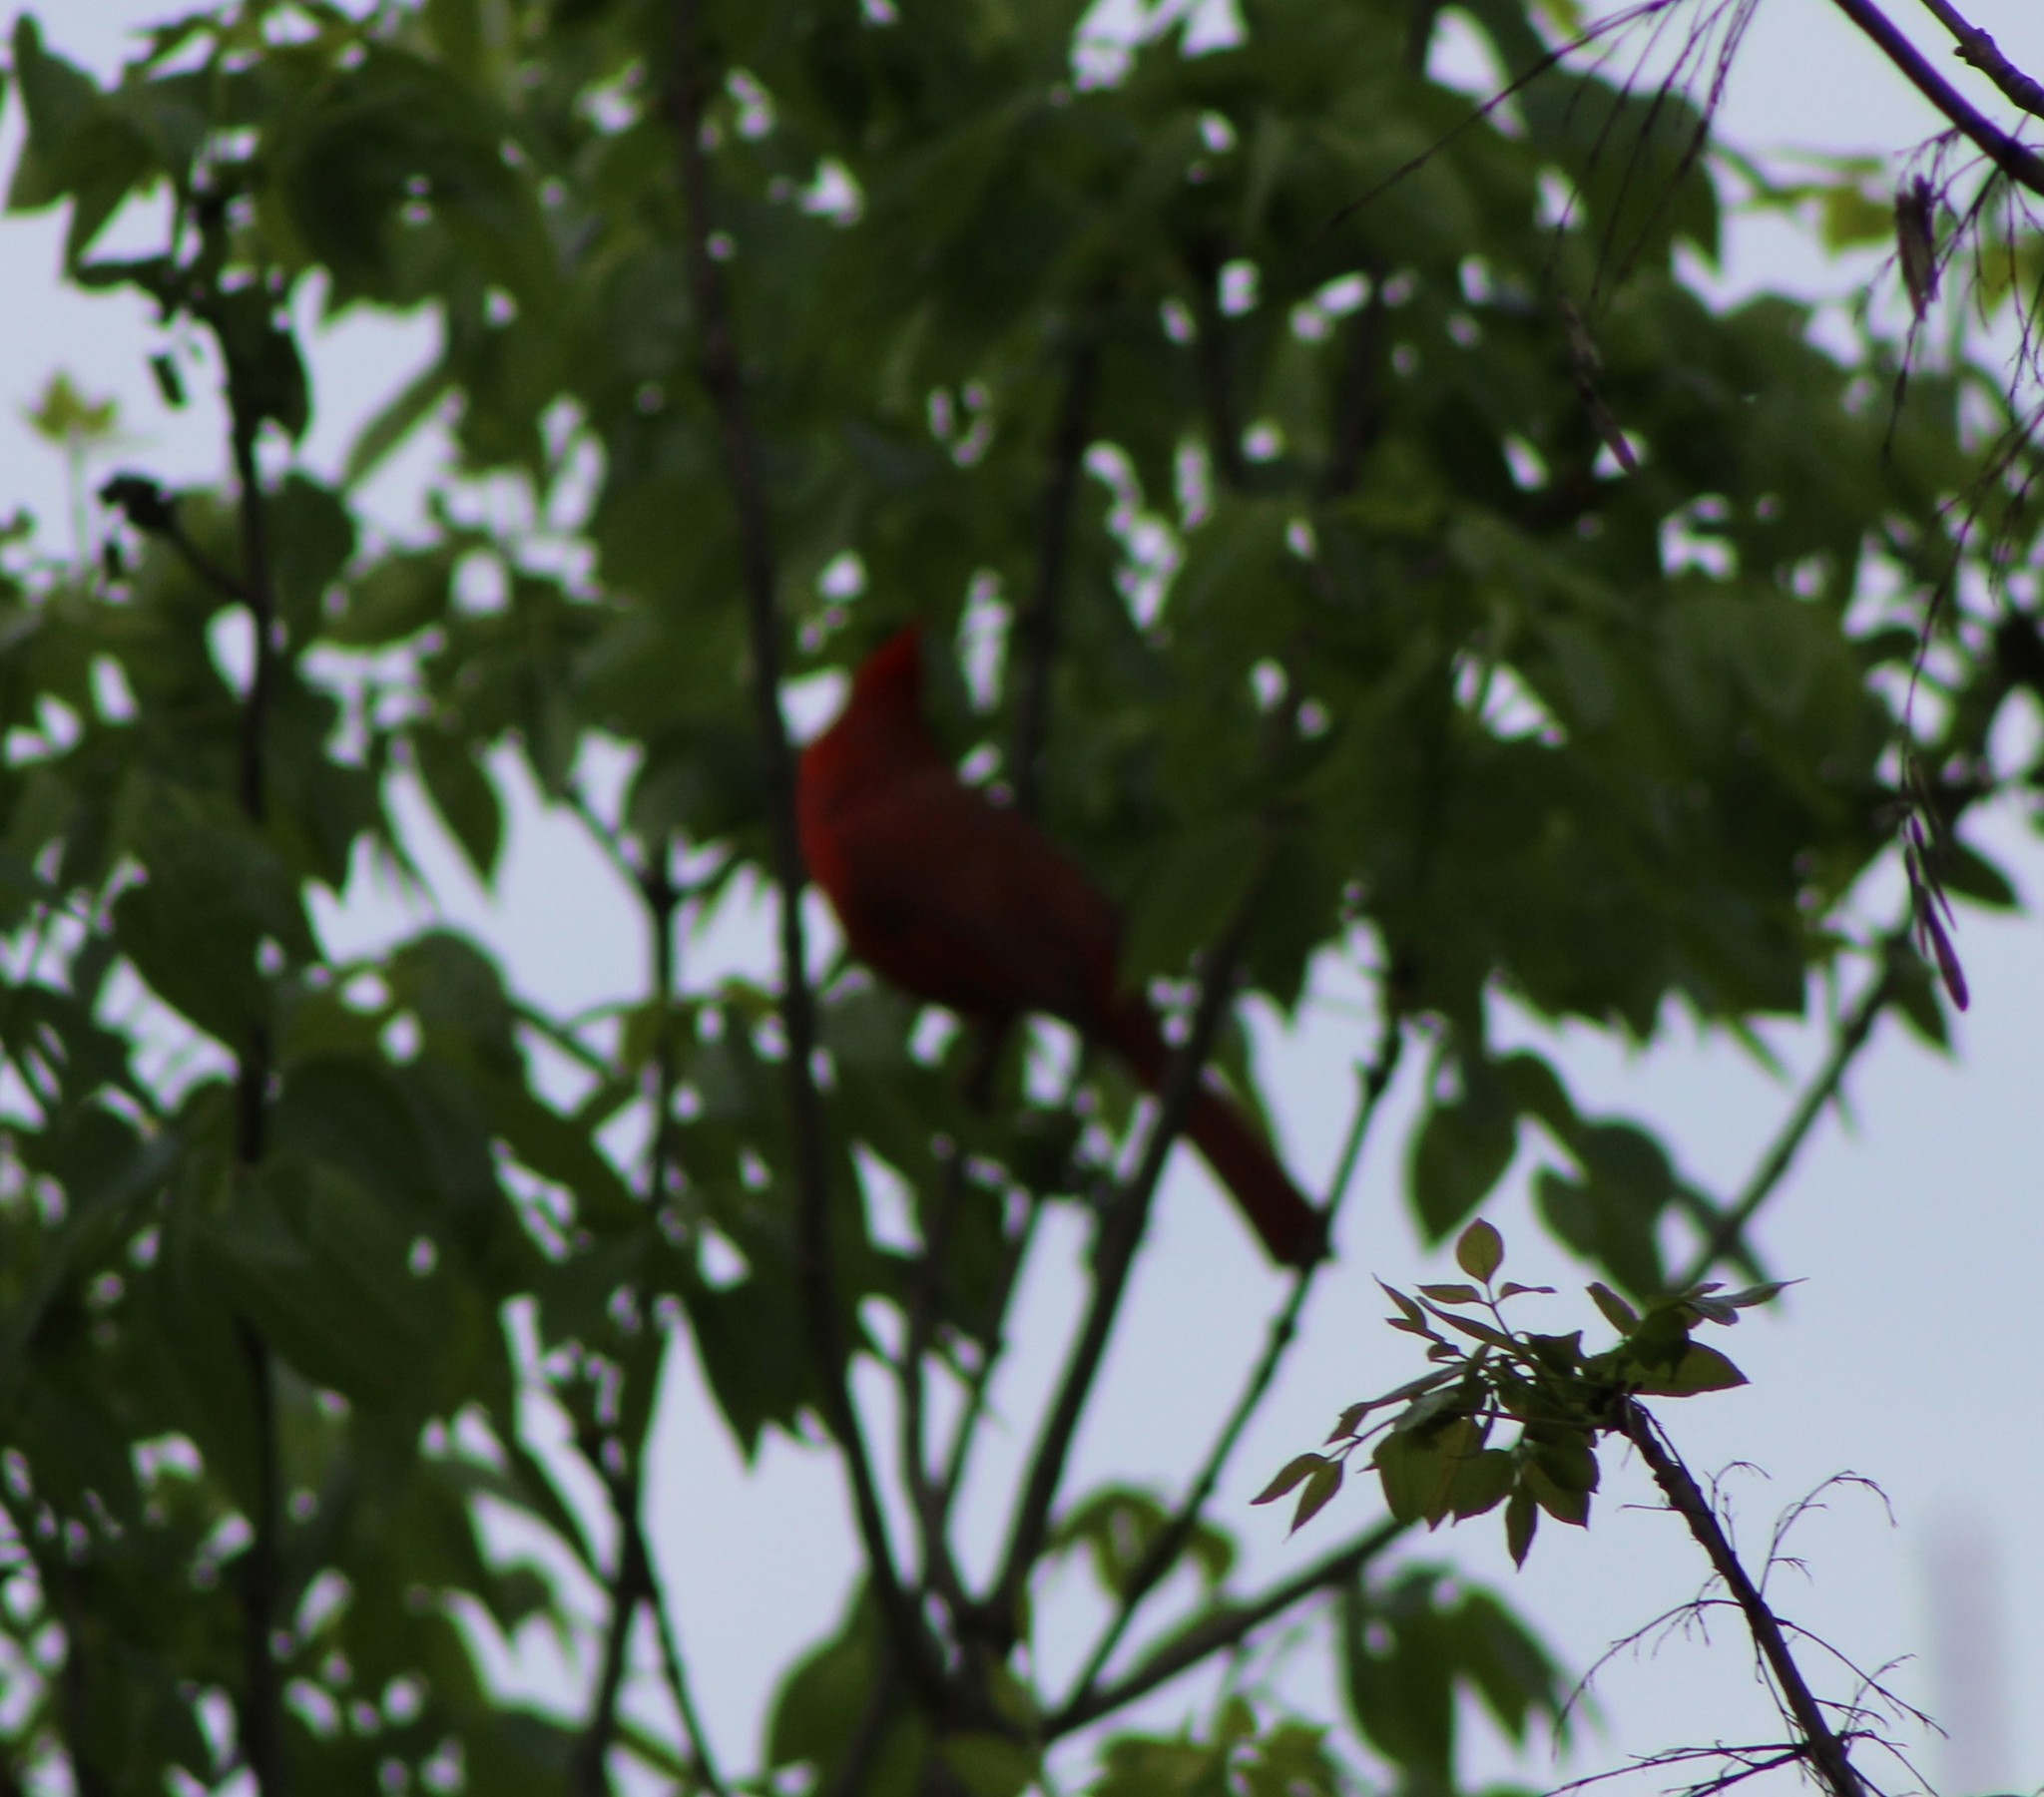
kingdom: Animalia
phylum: Chordata
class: Aves
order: Passeriformes
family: Cardinalidae
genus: Cardinalis
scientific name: Cardinalis cardinalis
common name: Northern cardinal
